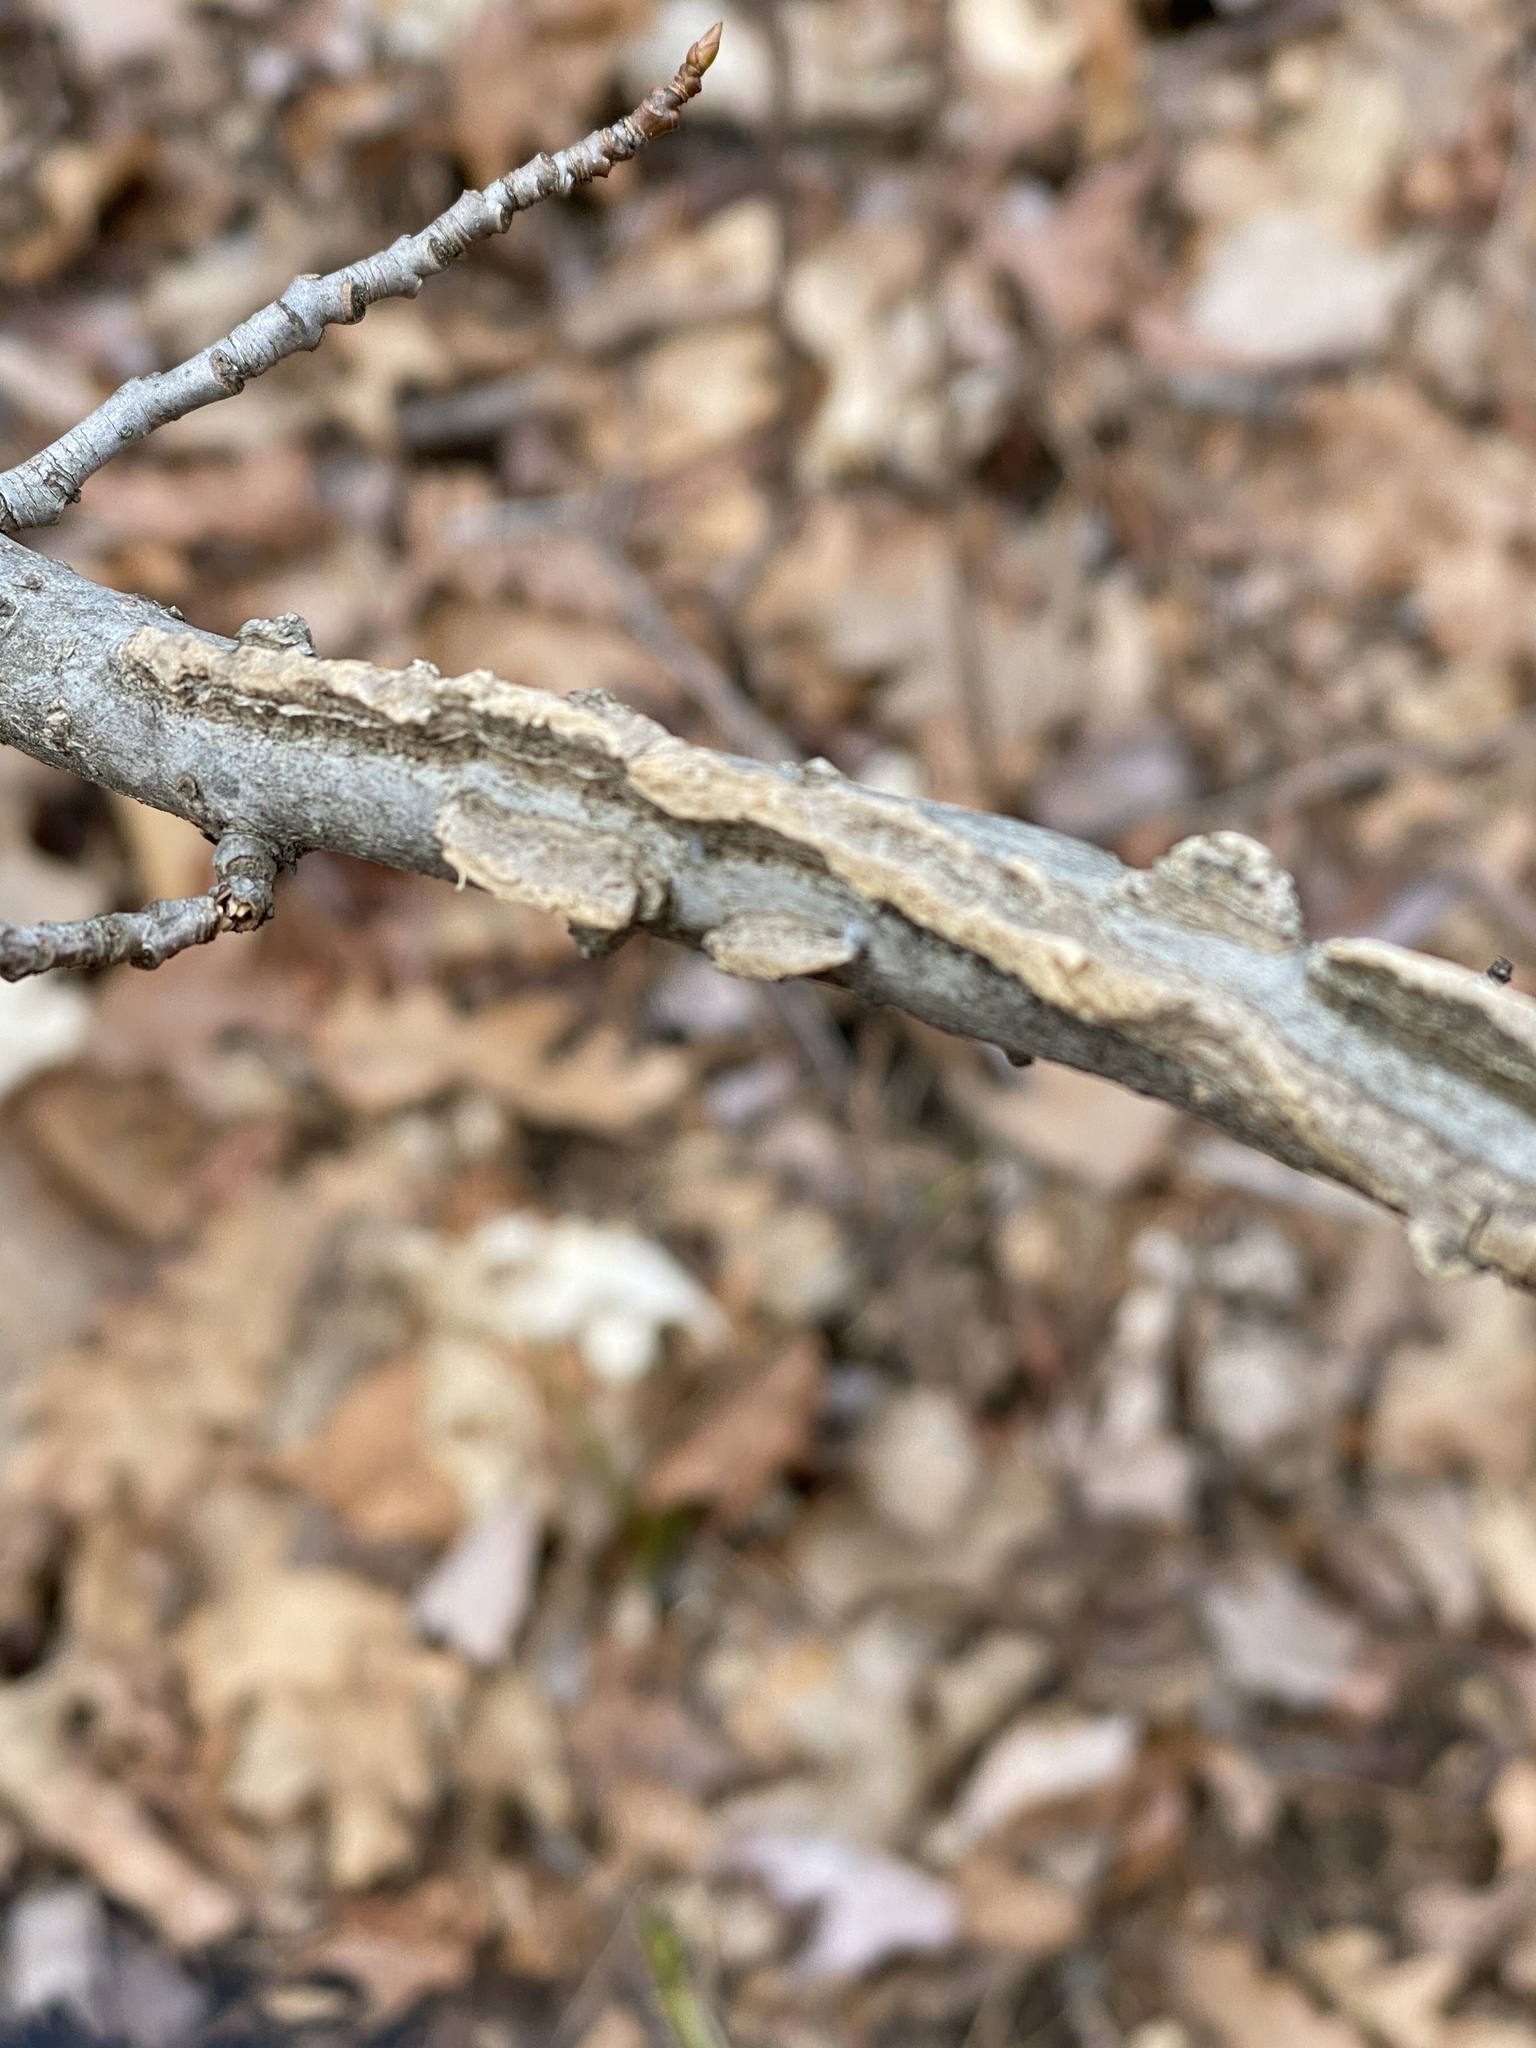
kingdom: Plantae
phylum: Tracheophyta
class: Magnoliopsida
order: Saxifragales
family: Altingiaceae
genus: Liquidambar
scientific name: Liquidambar styraciflua
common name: Sweet gum
